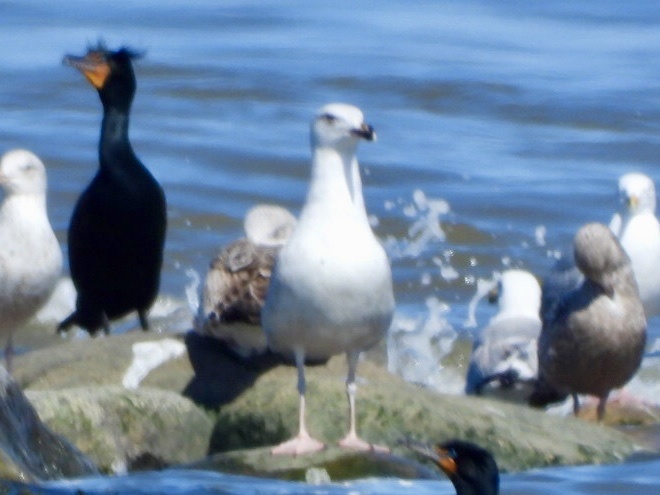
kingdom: Animalia
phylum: Chordata
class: Aves
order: Charadriiformes
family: Laridae
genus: Larus
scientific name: Larus marinus
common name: Great black-backed gull
